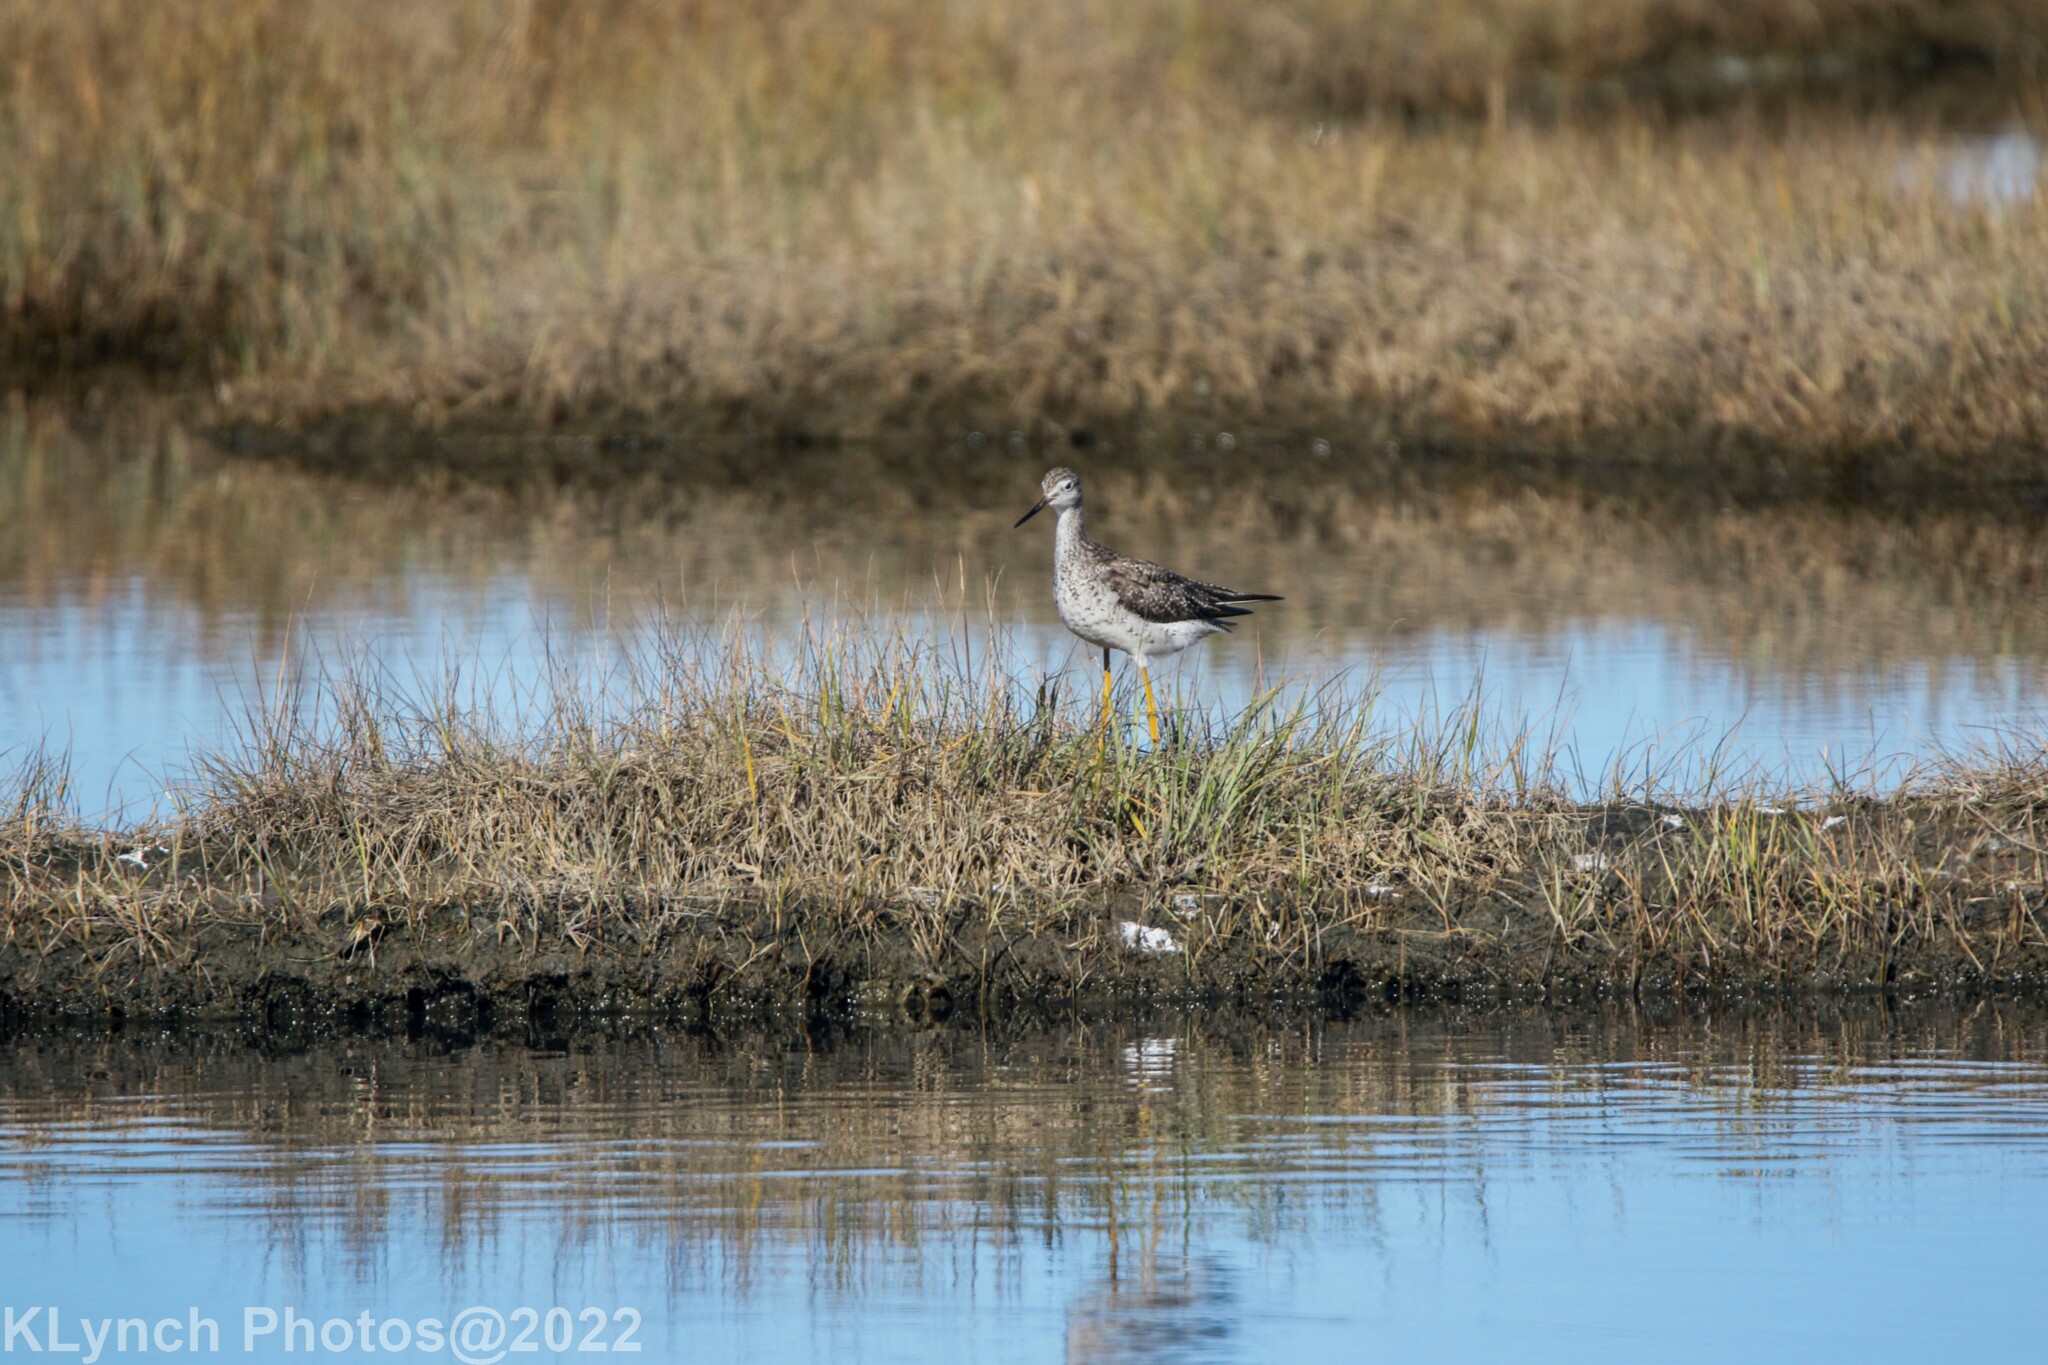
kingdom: Animalia
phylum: Chordata
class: Aves
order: Charadriiformes
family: Scolopacidae
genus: Tringa
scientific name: Tringa melanoleuca
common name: Greater yellowlegs
